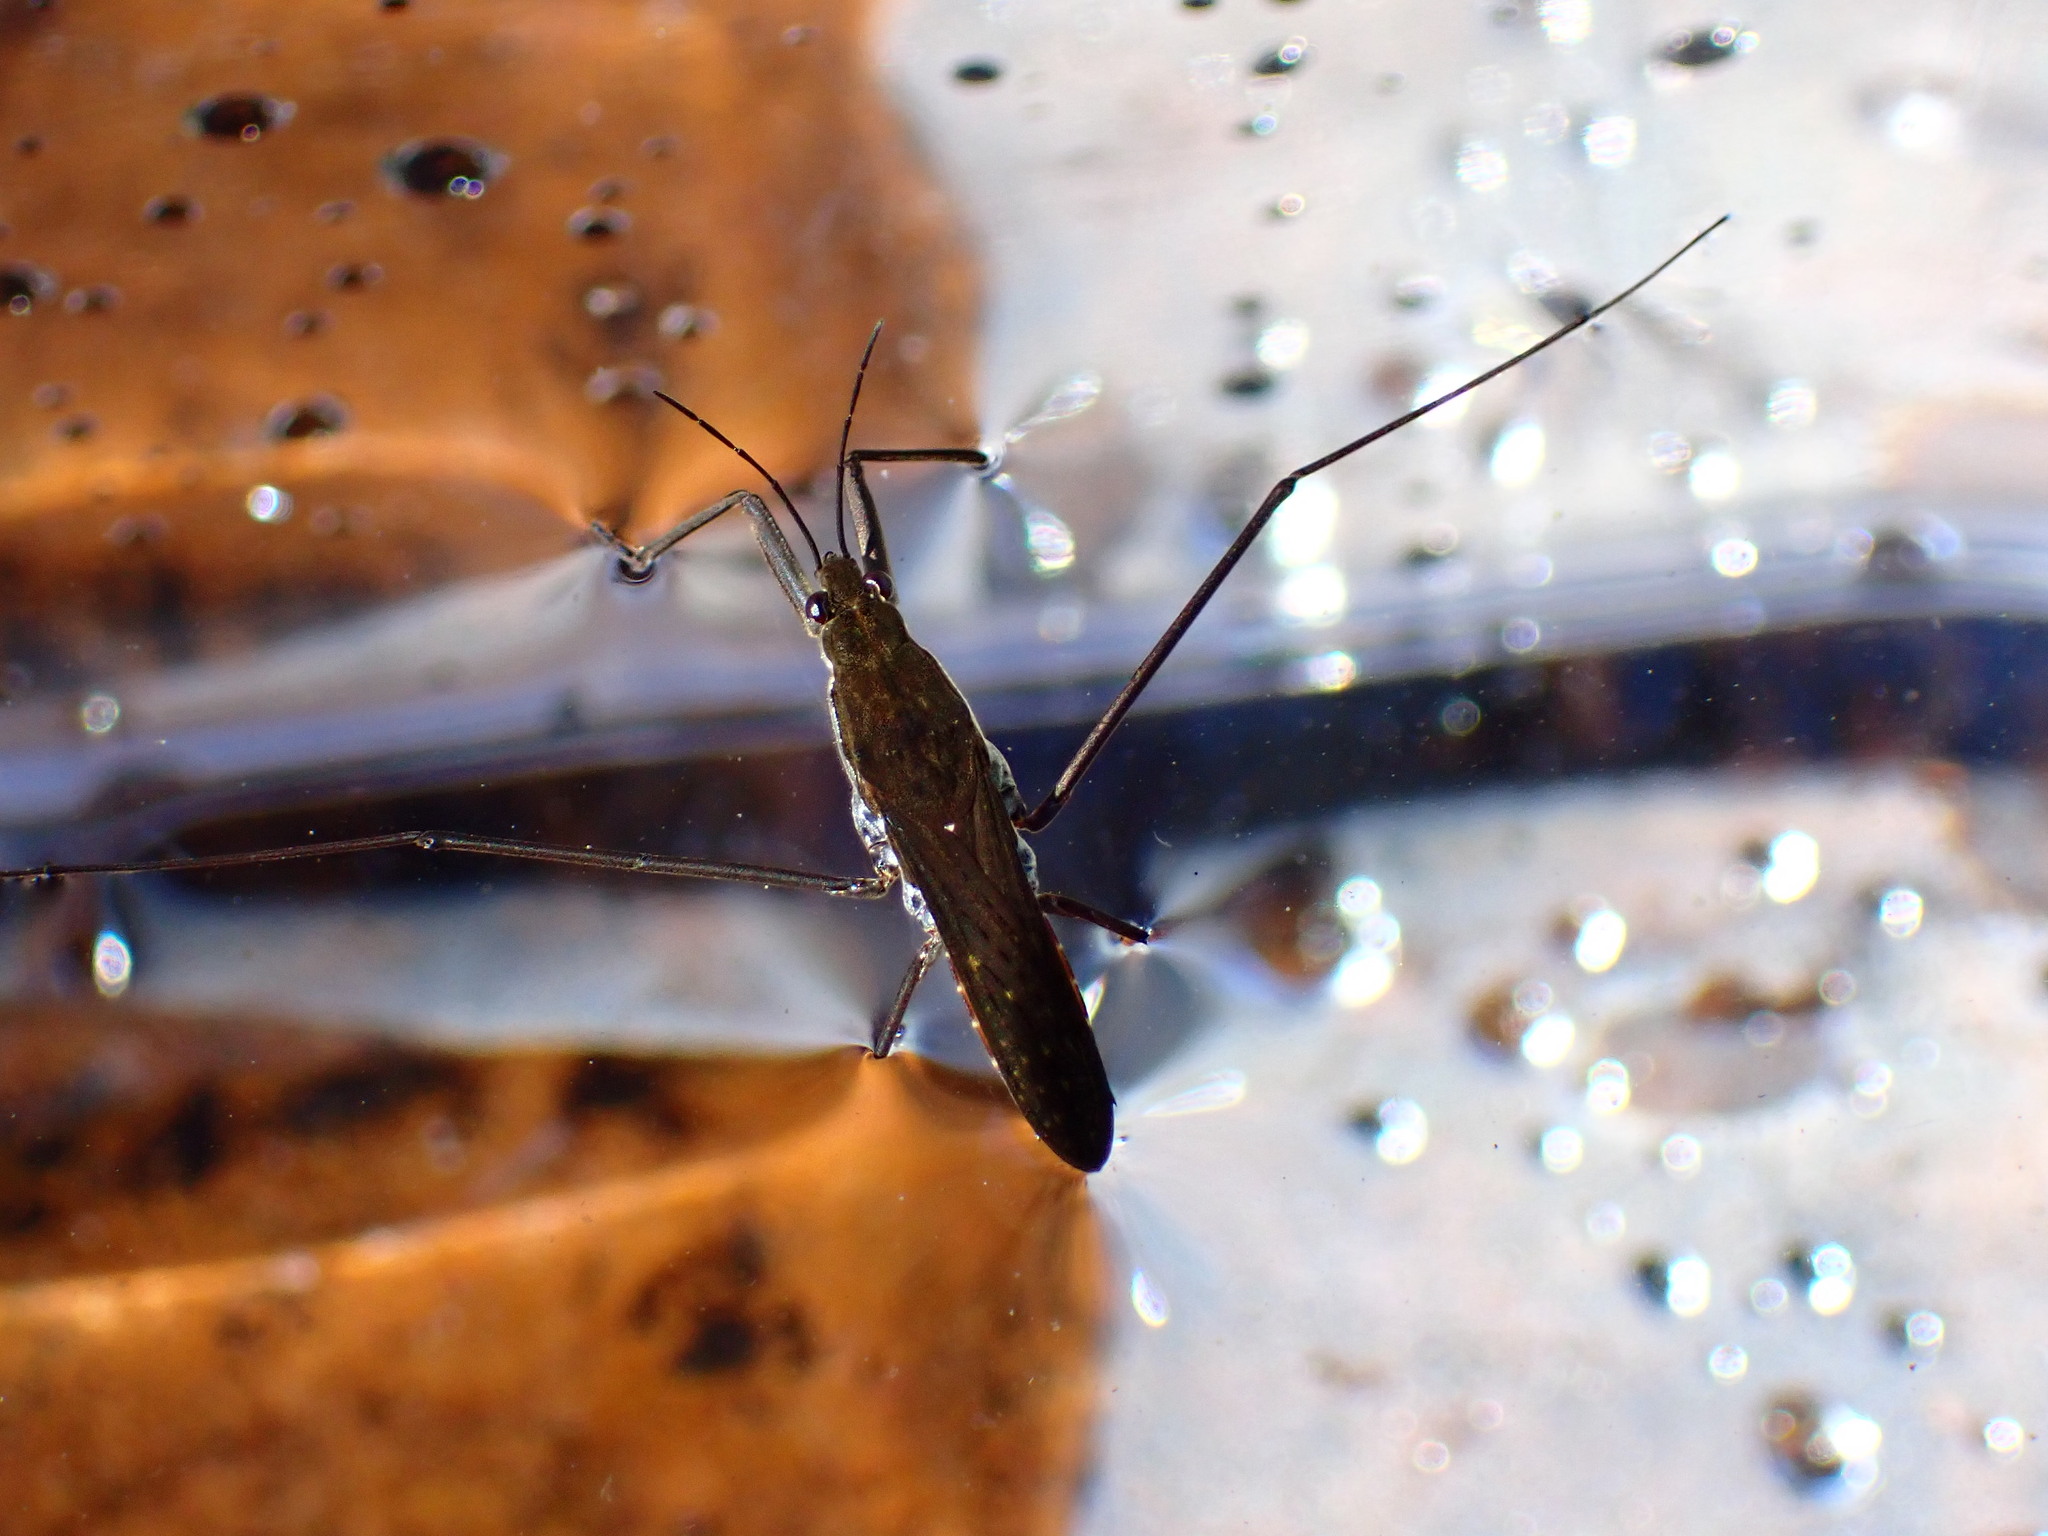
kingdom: Animalia
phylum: Arthropoda
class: Insecta
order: Hemiptera
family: Gerridae
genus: Aquarius
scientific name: Aquarius remigis
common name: Common water strider
